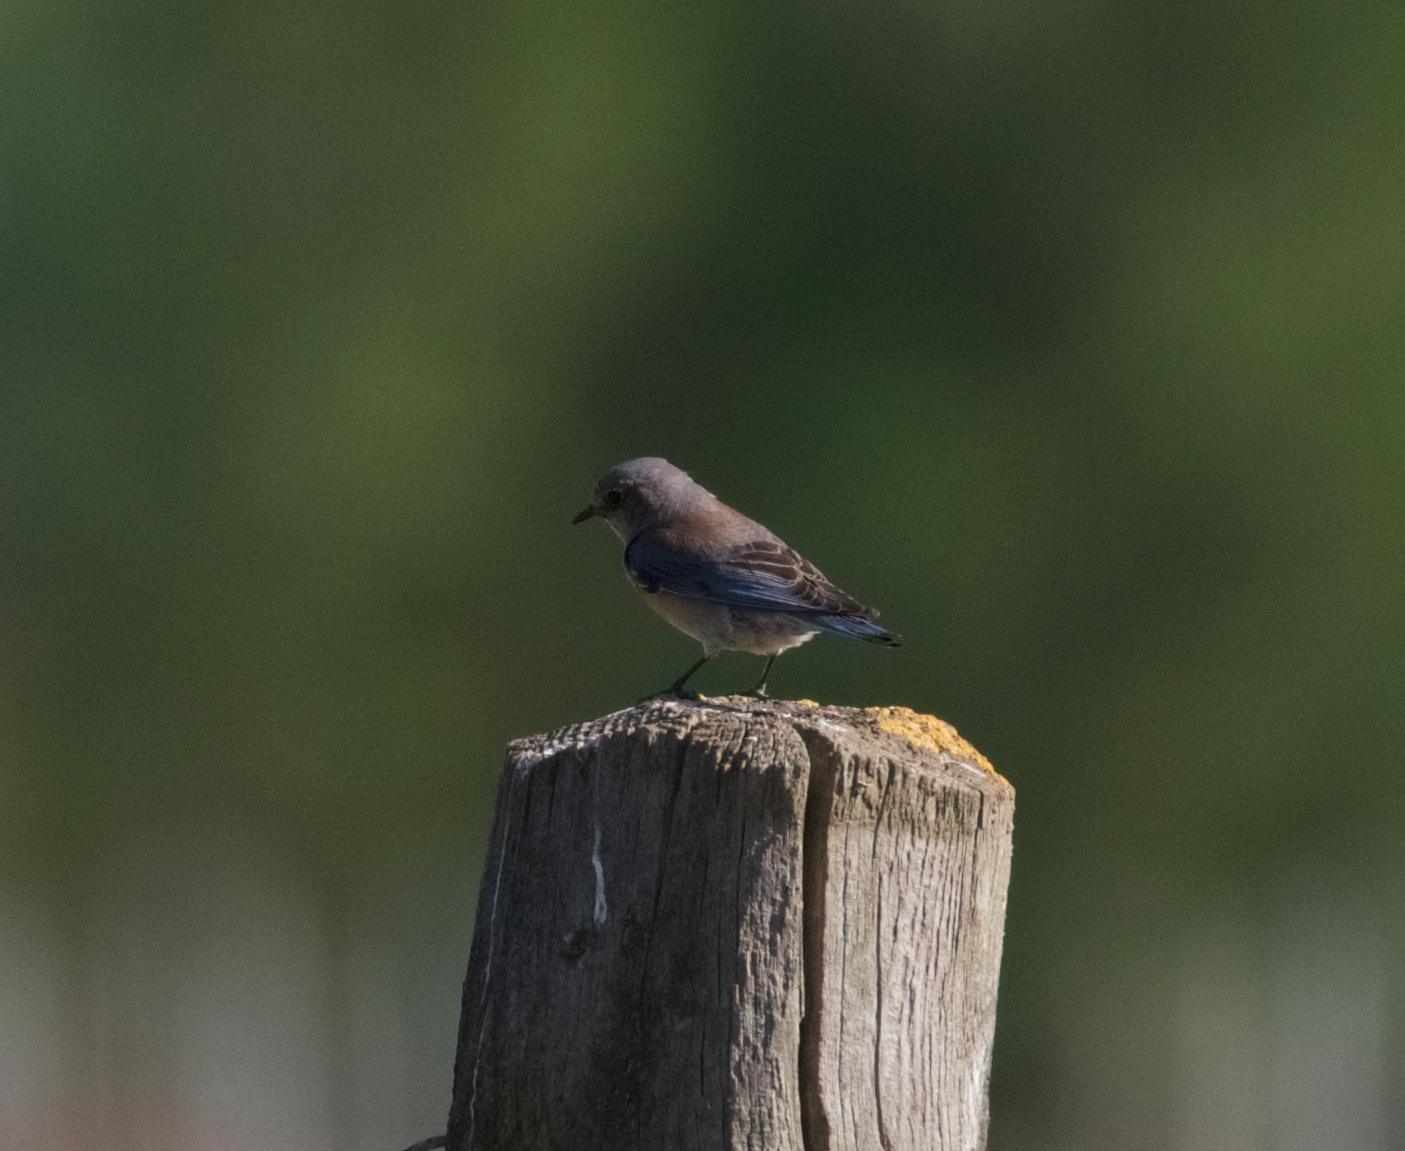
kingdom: Animalia
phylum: Chordata
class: Aves
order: Passeriformes
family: Turdidae
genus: Sialia
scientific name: Sialia mexicana
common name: Western bluebird
